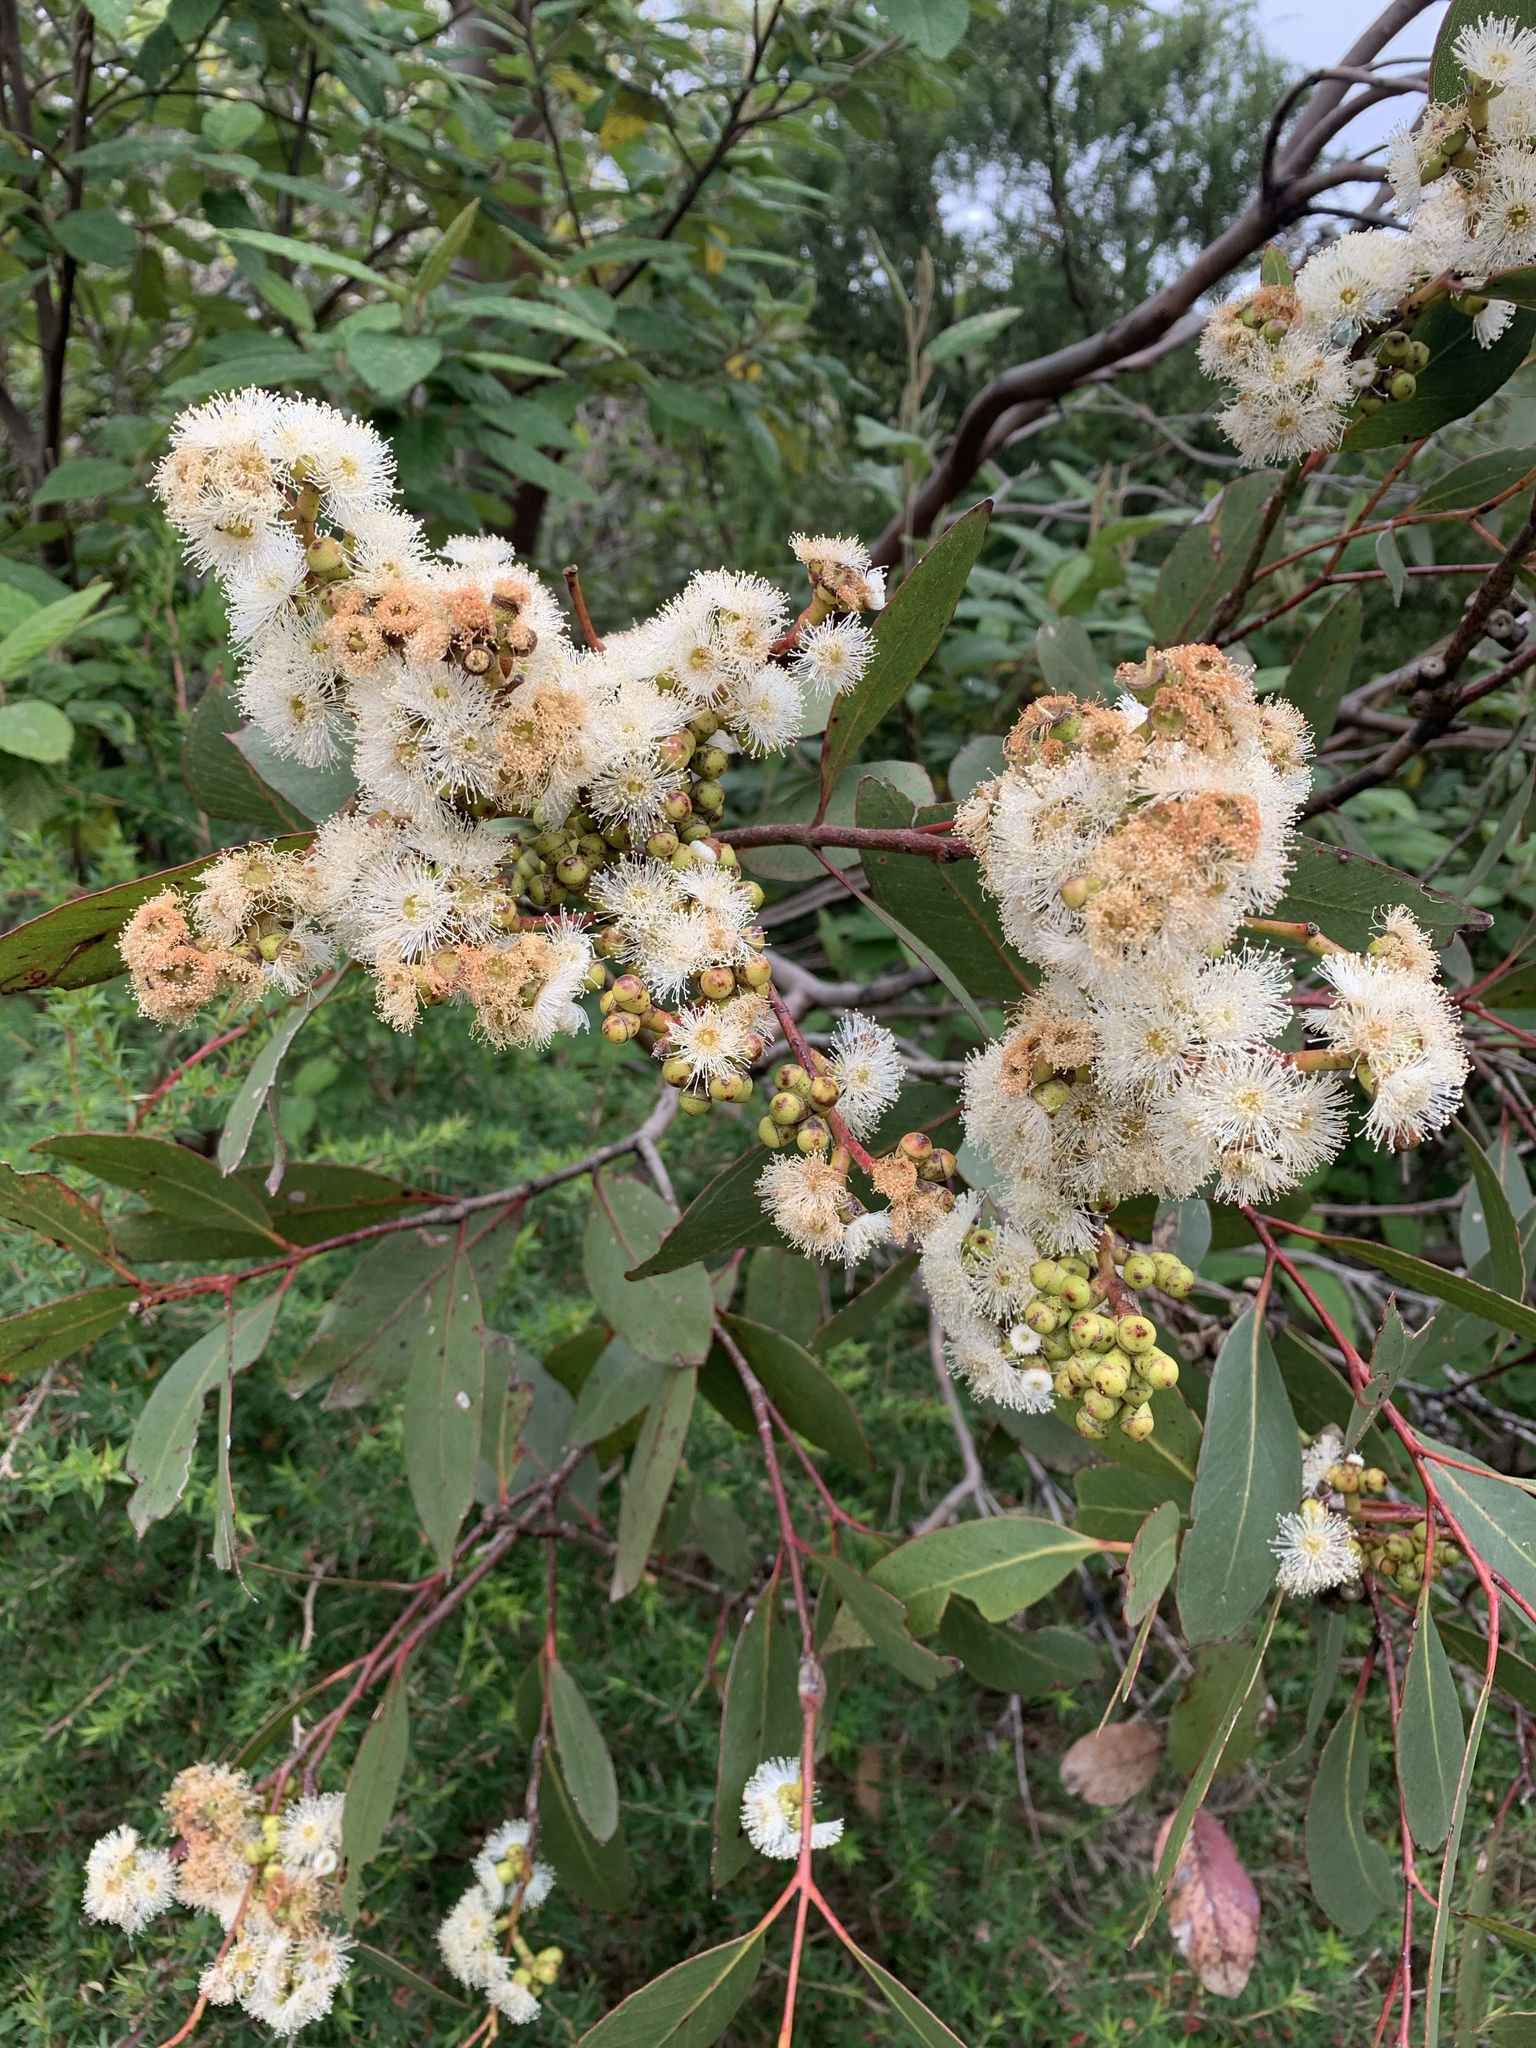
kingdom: Plantae
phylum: Tracheophyta
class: Magnoliopsida
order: Myrtales
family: Myrtaceae
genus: Eucalyptus
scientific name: Eucalyptus kitsoniana
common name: Gippsland mallee
